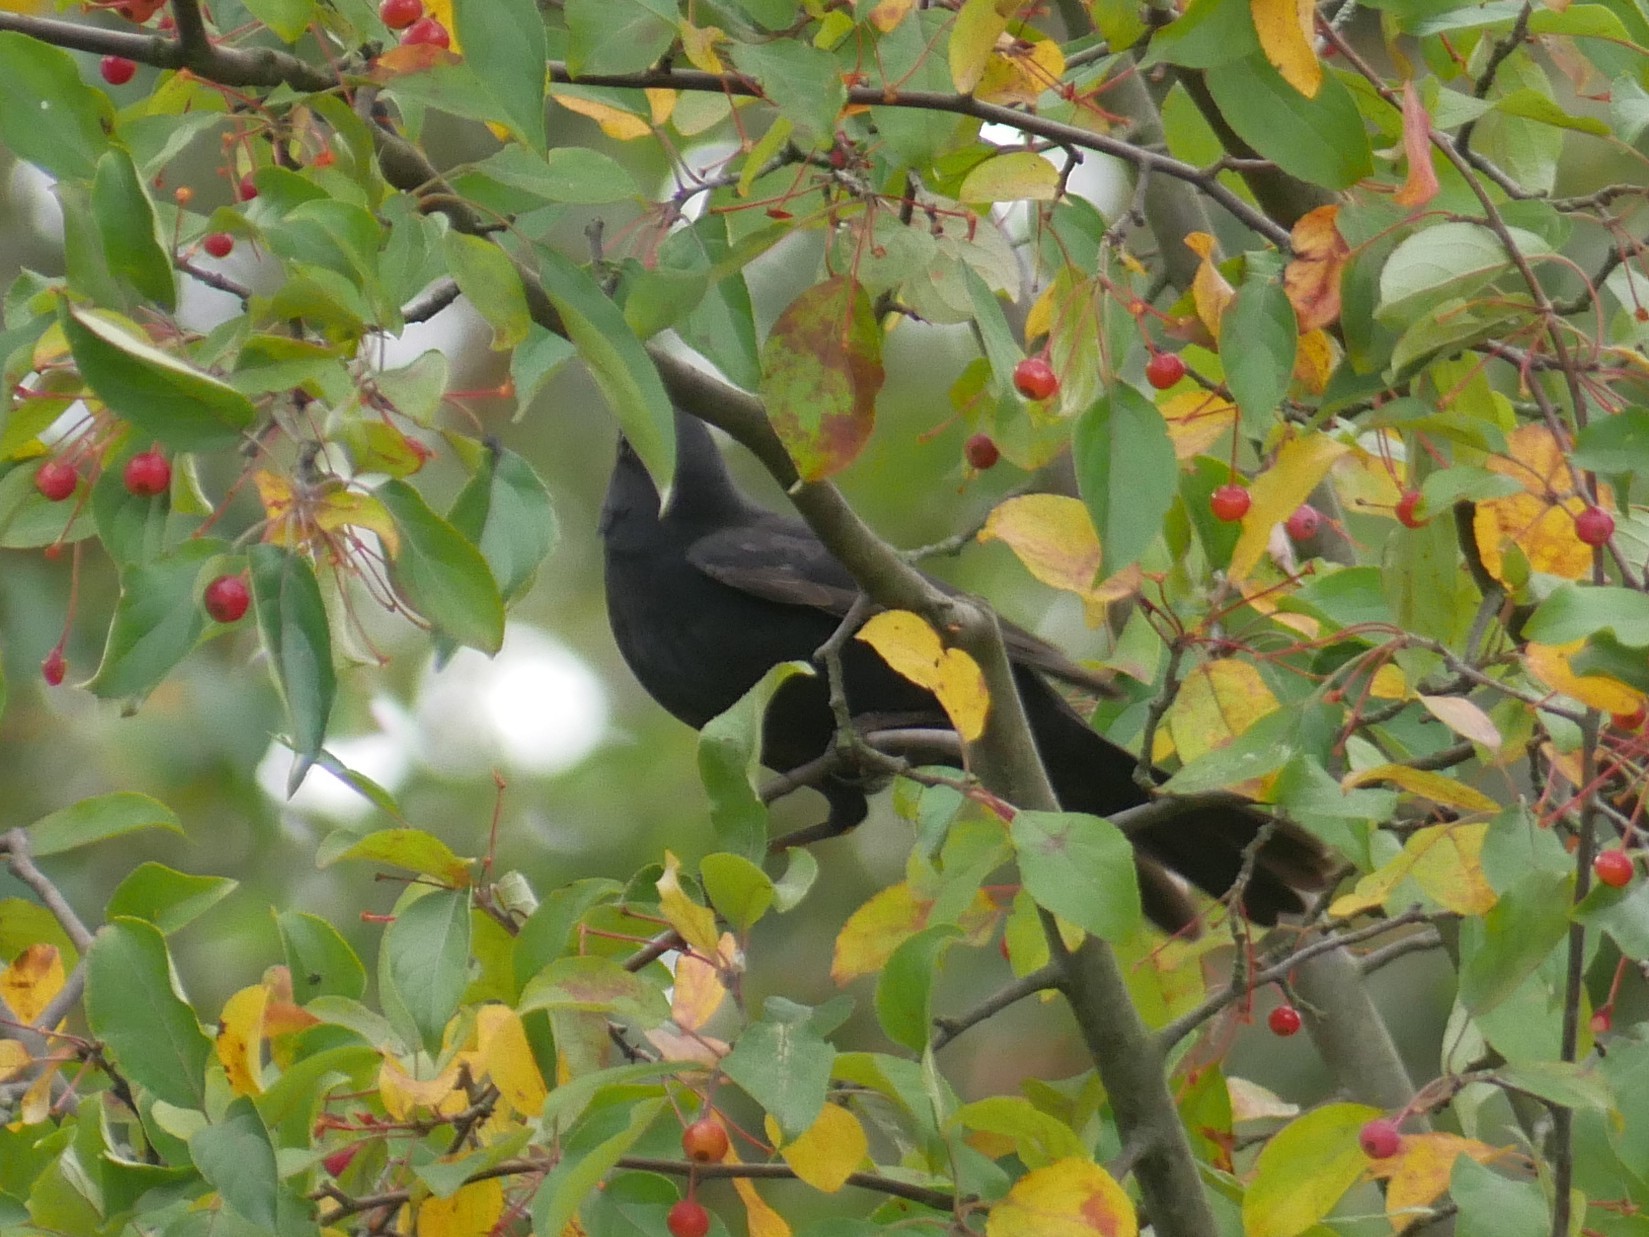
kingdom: Animalia
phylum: Chordata
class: Aves
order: Passeriformes
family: Turdidae
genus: Turdus
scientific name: Turdus merula
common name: Common blackbird
